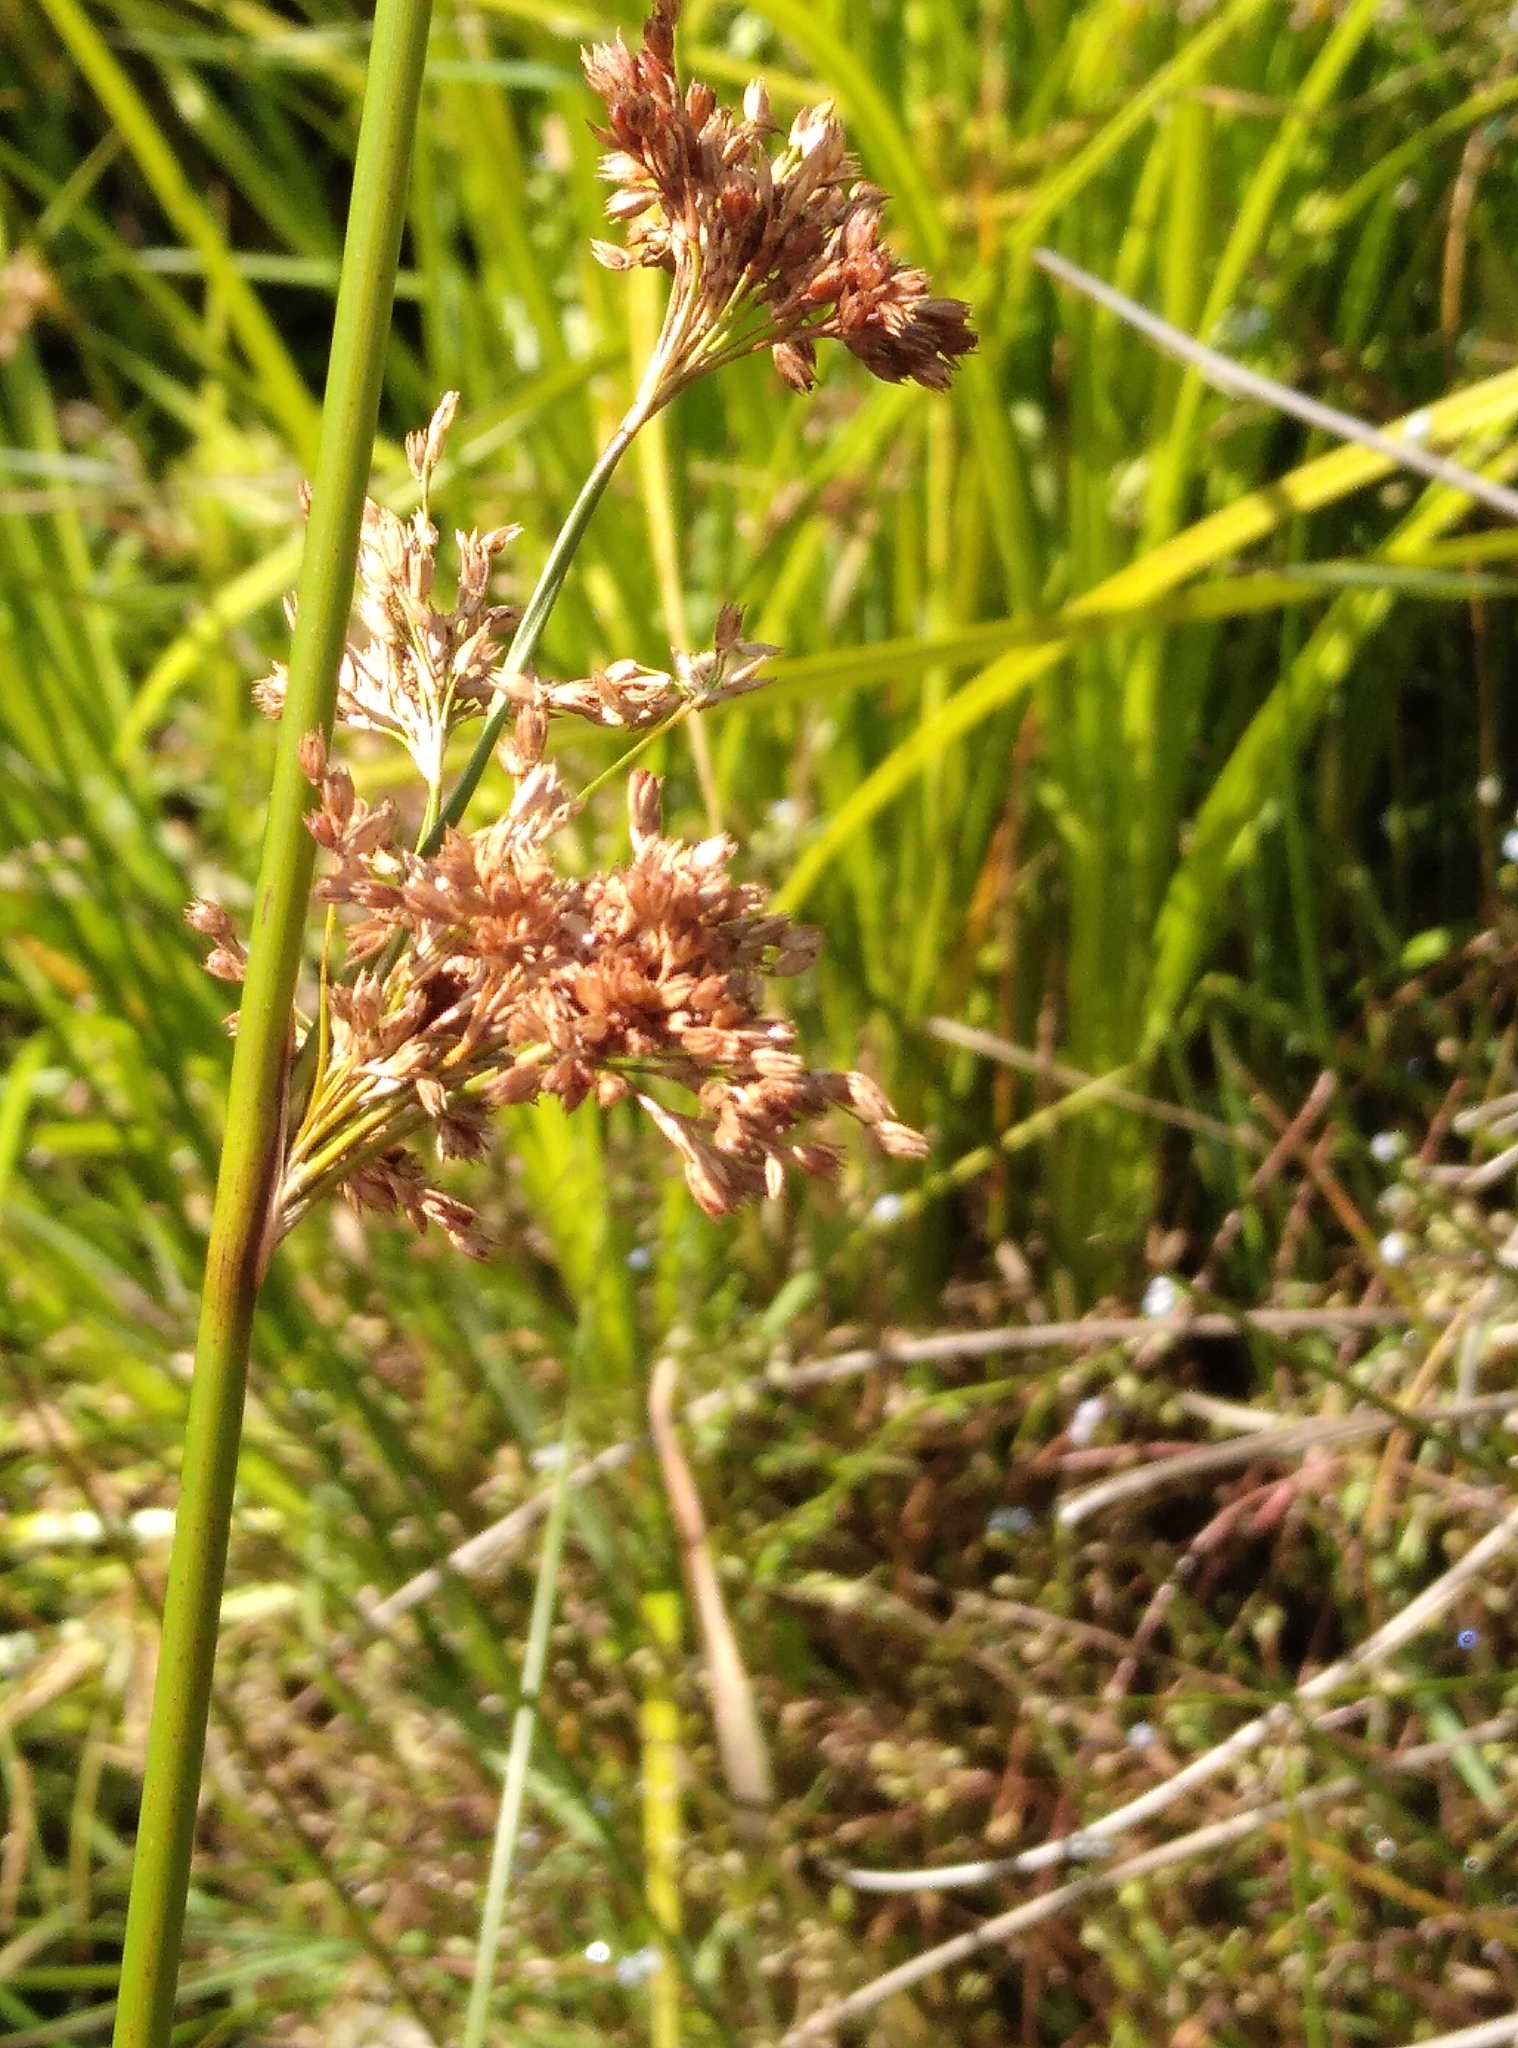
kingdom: Plantae
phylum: Tracheophyta
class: Liliopsida
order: Poales
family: Juncaceae
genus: Juncus
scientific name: Juncus effusus
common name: Soft rush
